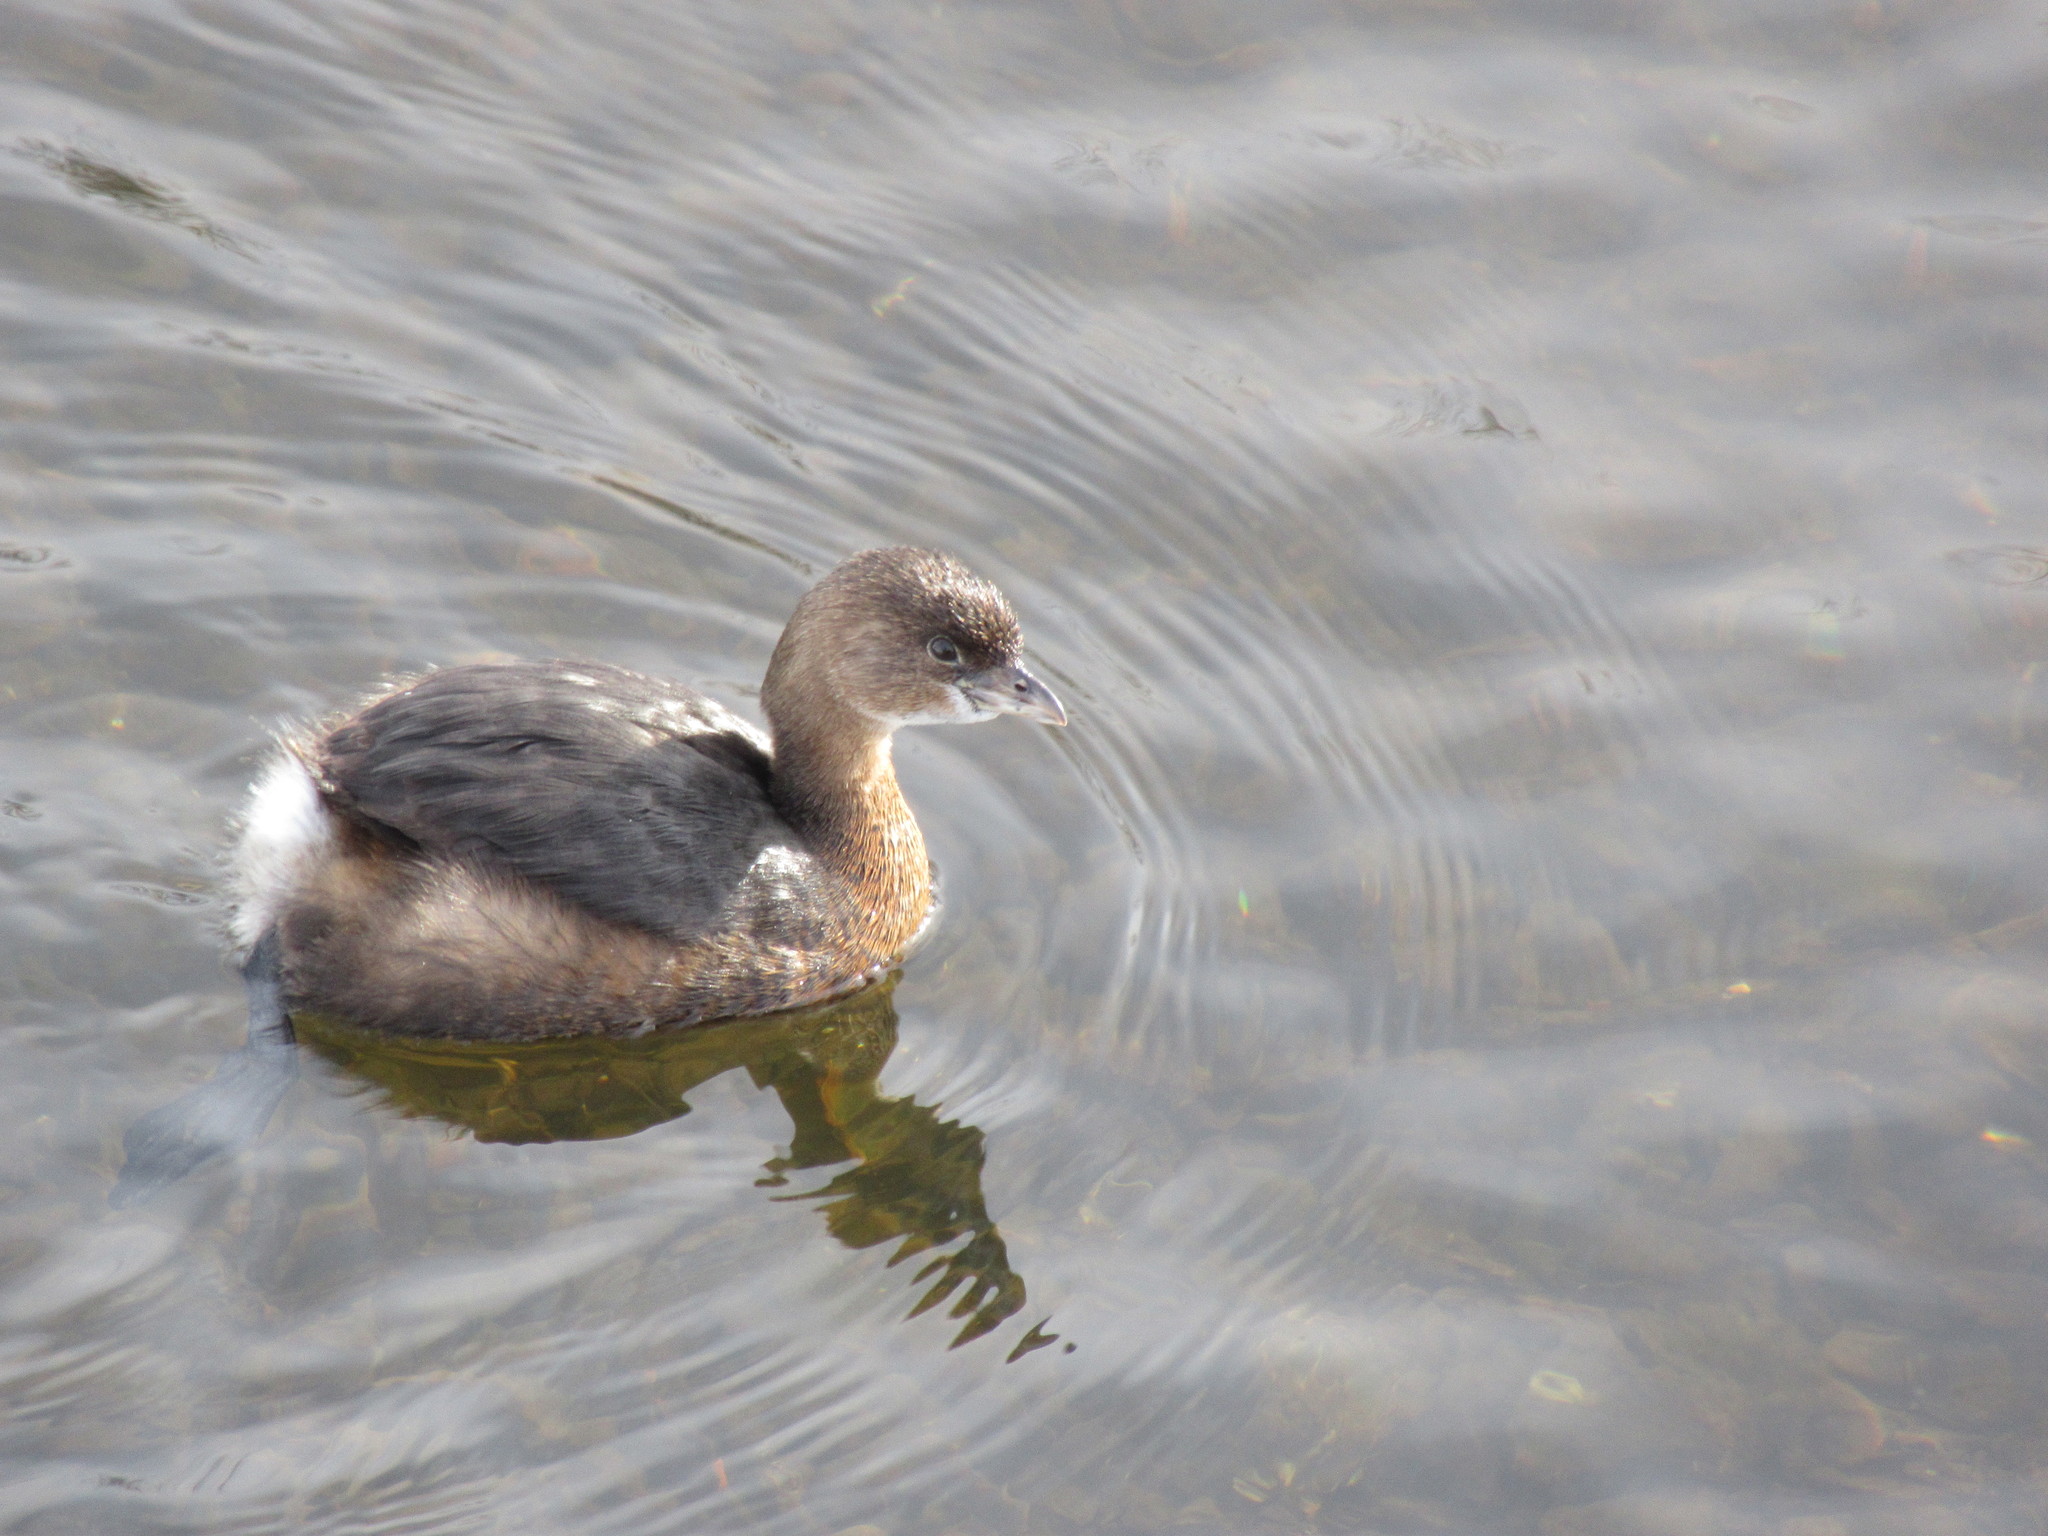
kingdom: Animalia
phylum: Chordata
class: Aves
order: Podicipediformes
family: Podicipedidae
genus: Podilymbus
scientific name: Podilymbus podiceps
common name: Pied-billed grebe
